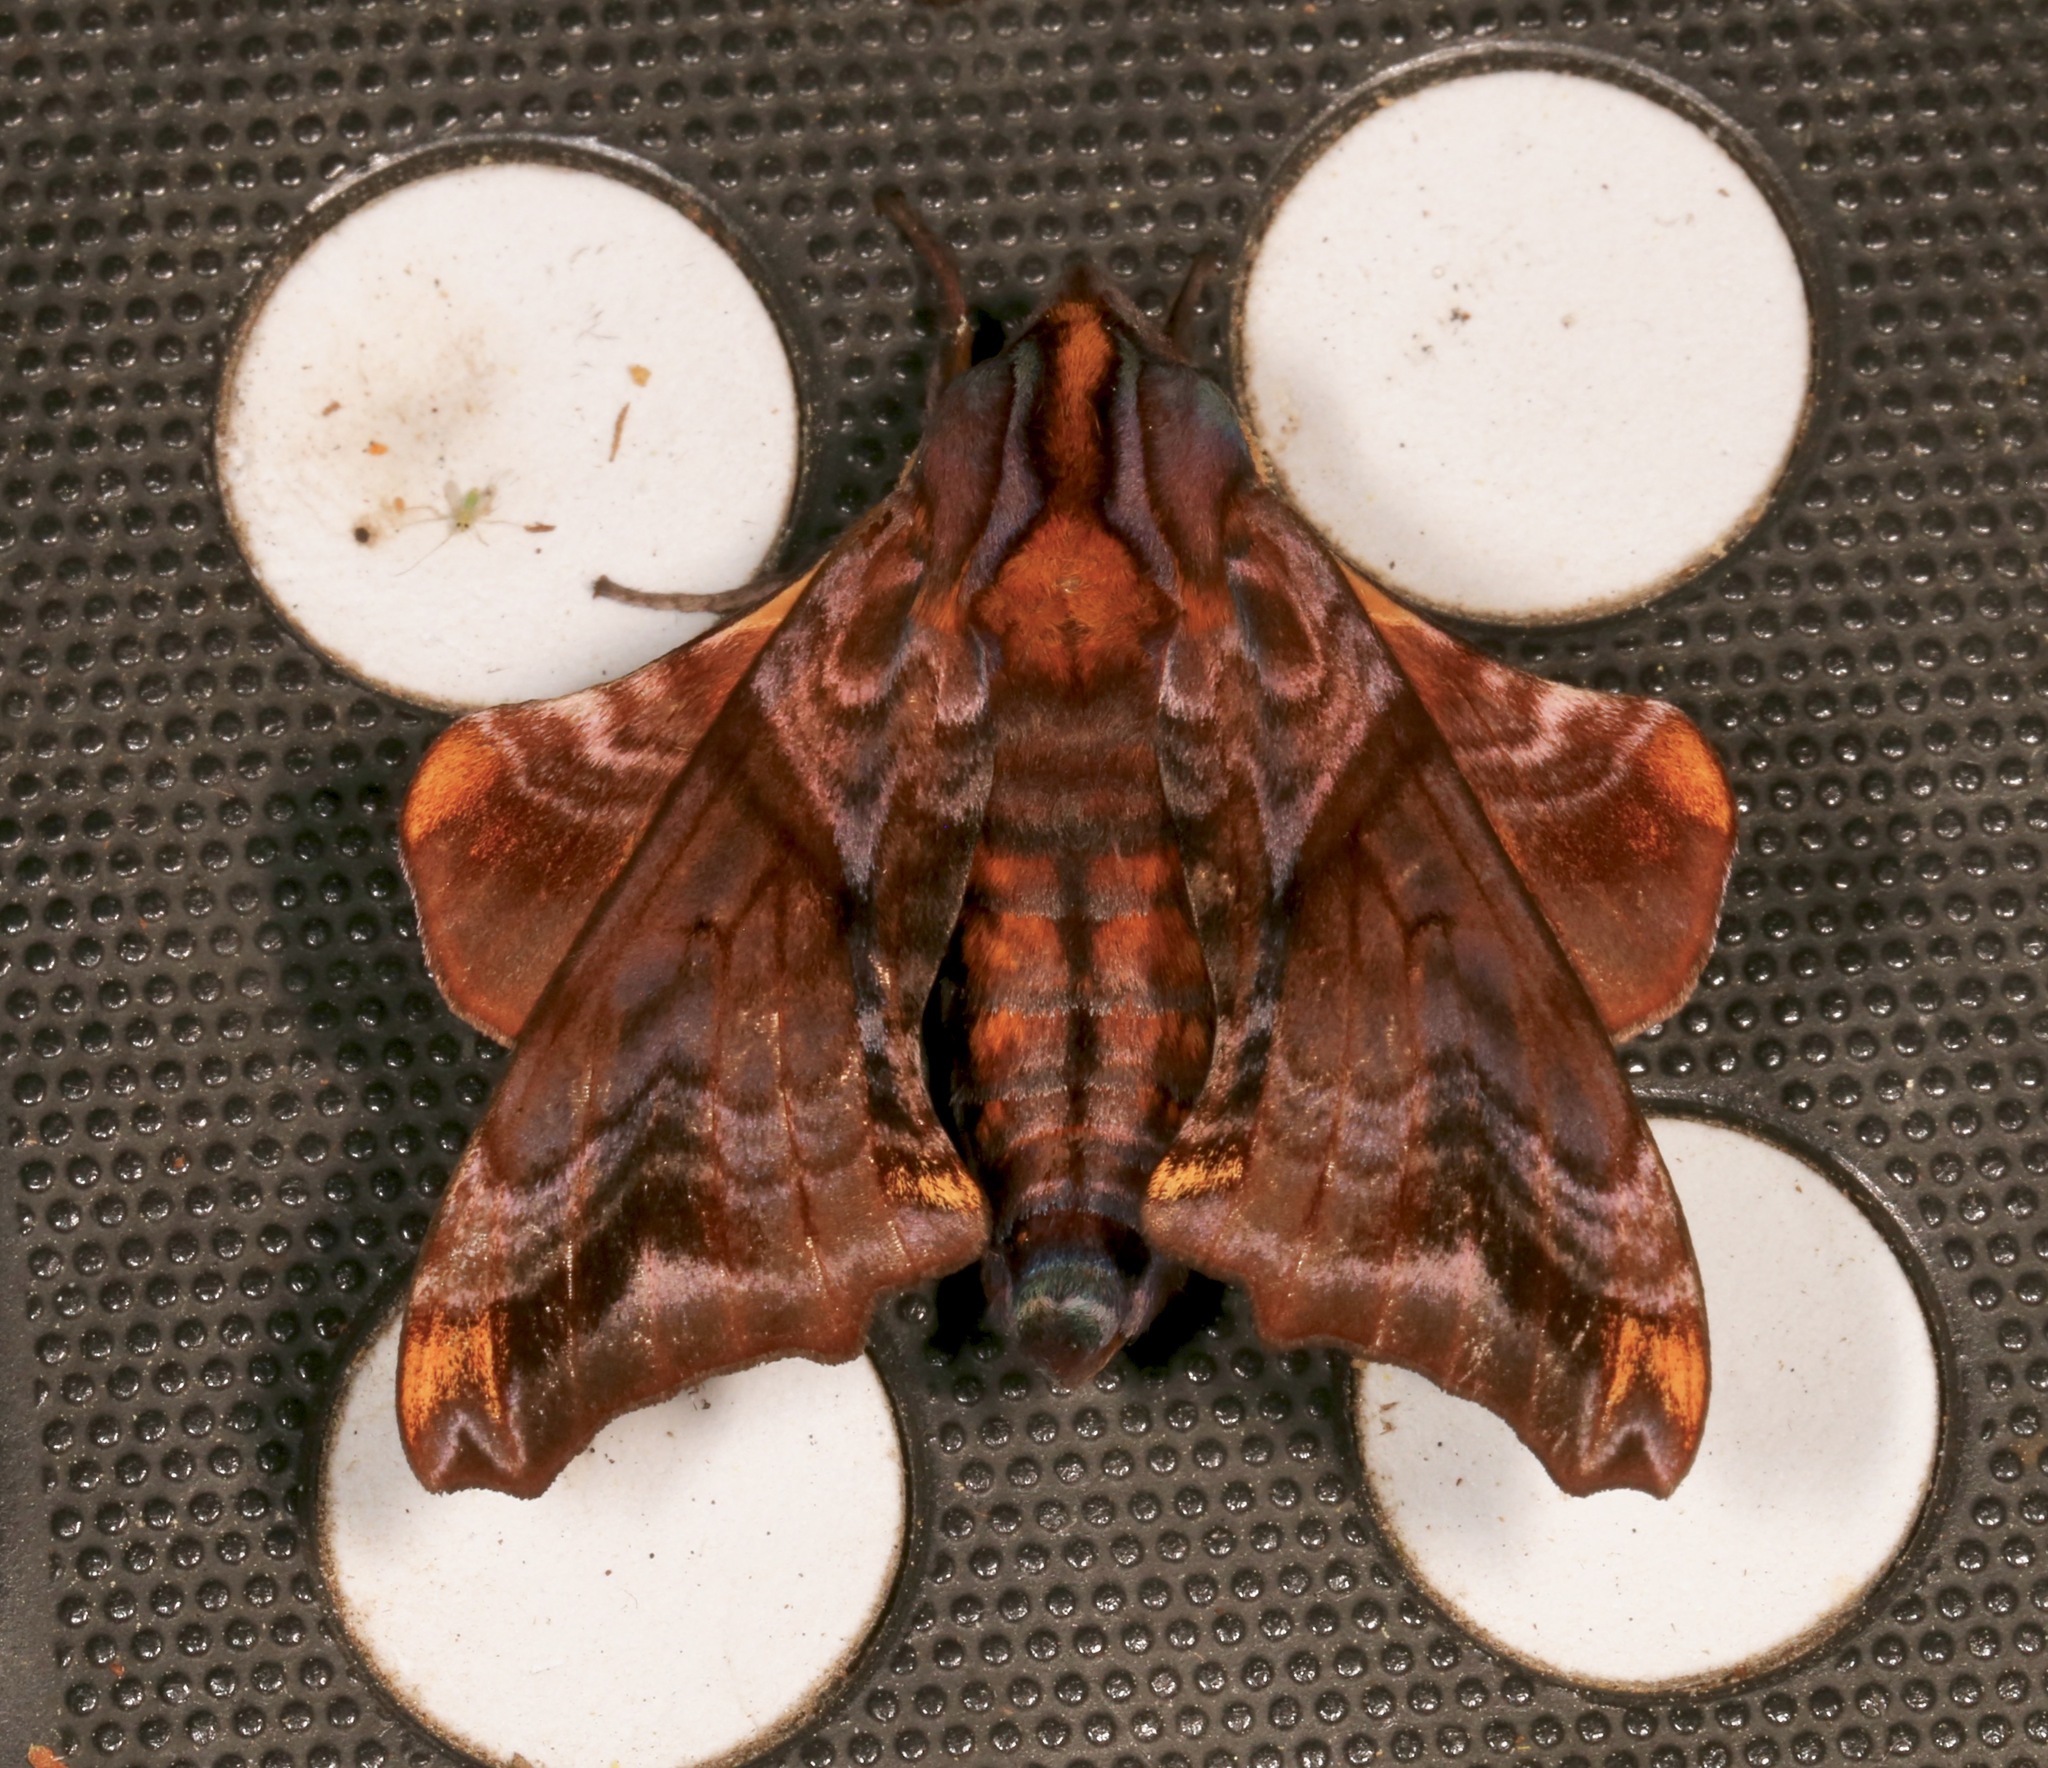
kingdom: Animalia
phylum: Arthropoda
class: Insecta
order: Lepidoptera
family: Sphingidae
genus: Paonias
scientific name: Paonias myops
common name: Small-eyed sphinx
